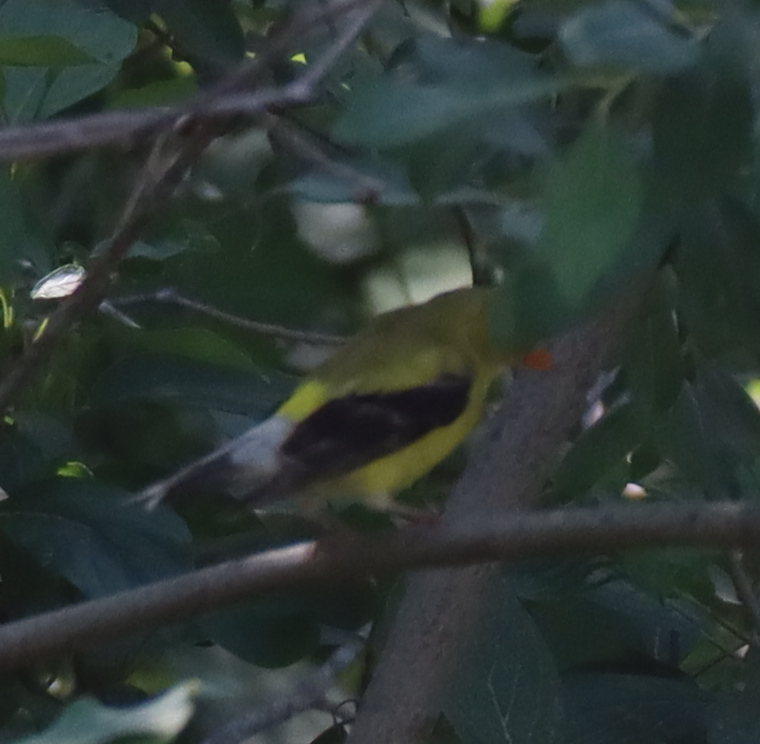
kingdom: Animalia
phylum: Chordata
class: Aves
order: Passeriformes
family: Fringillidae
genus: Spinus
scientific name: Spinus tristis
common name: American goldfinch
